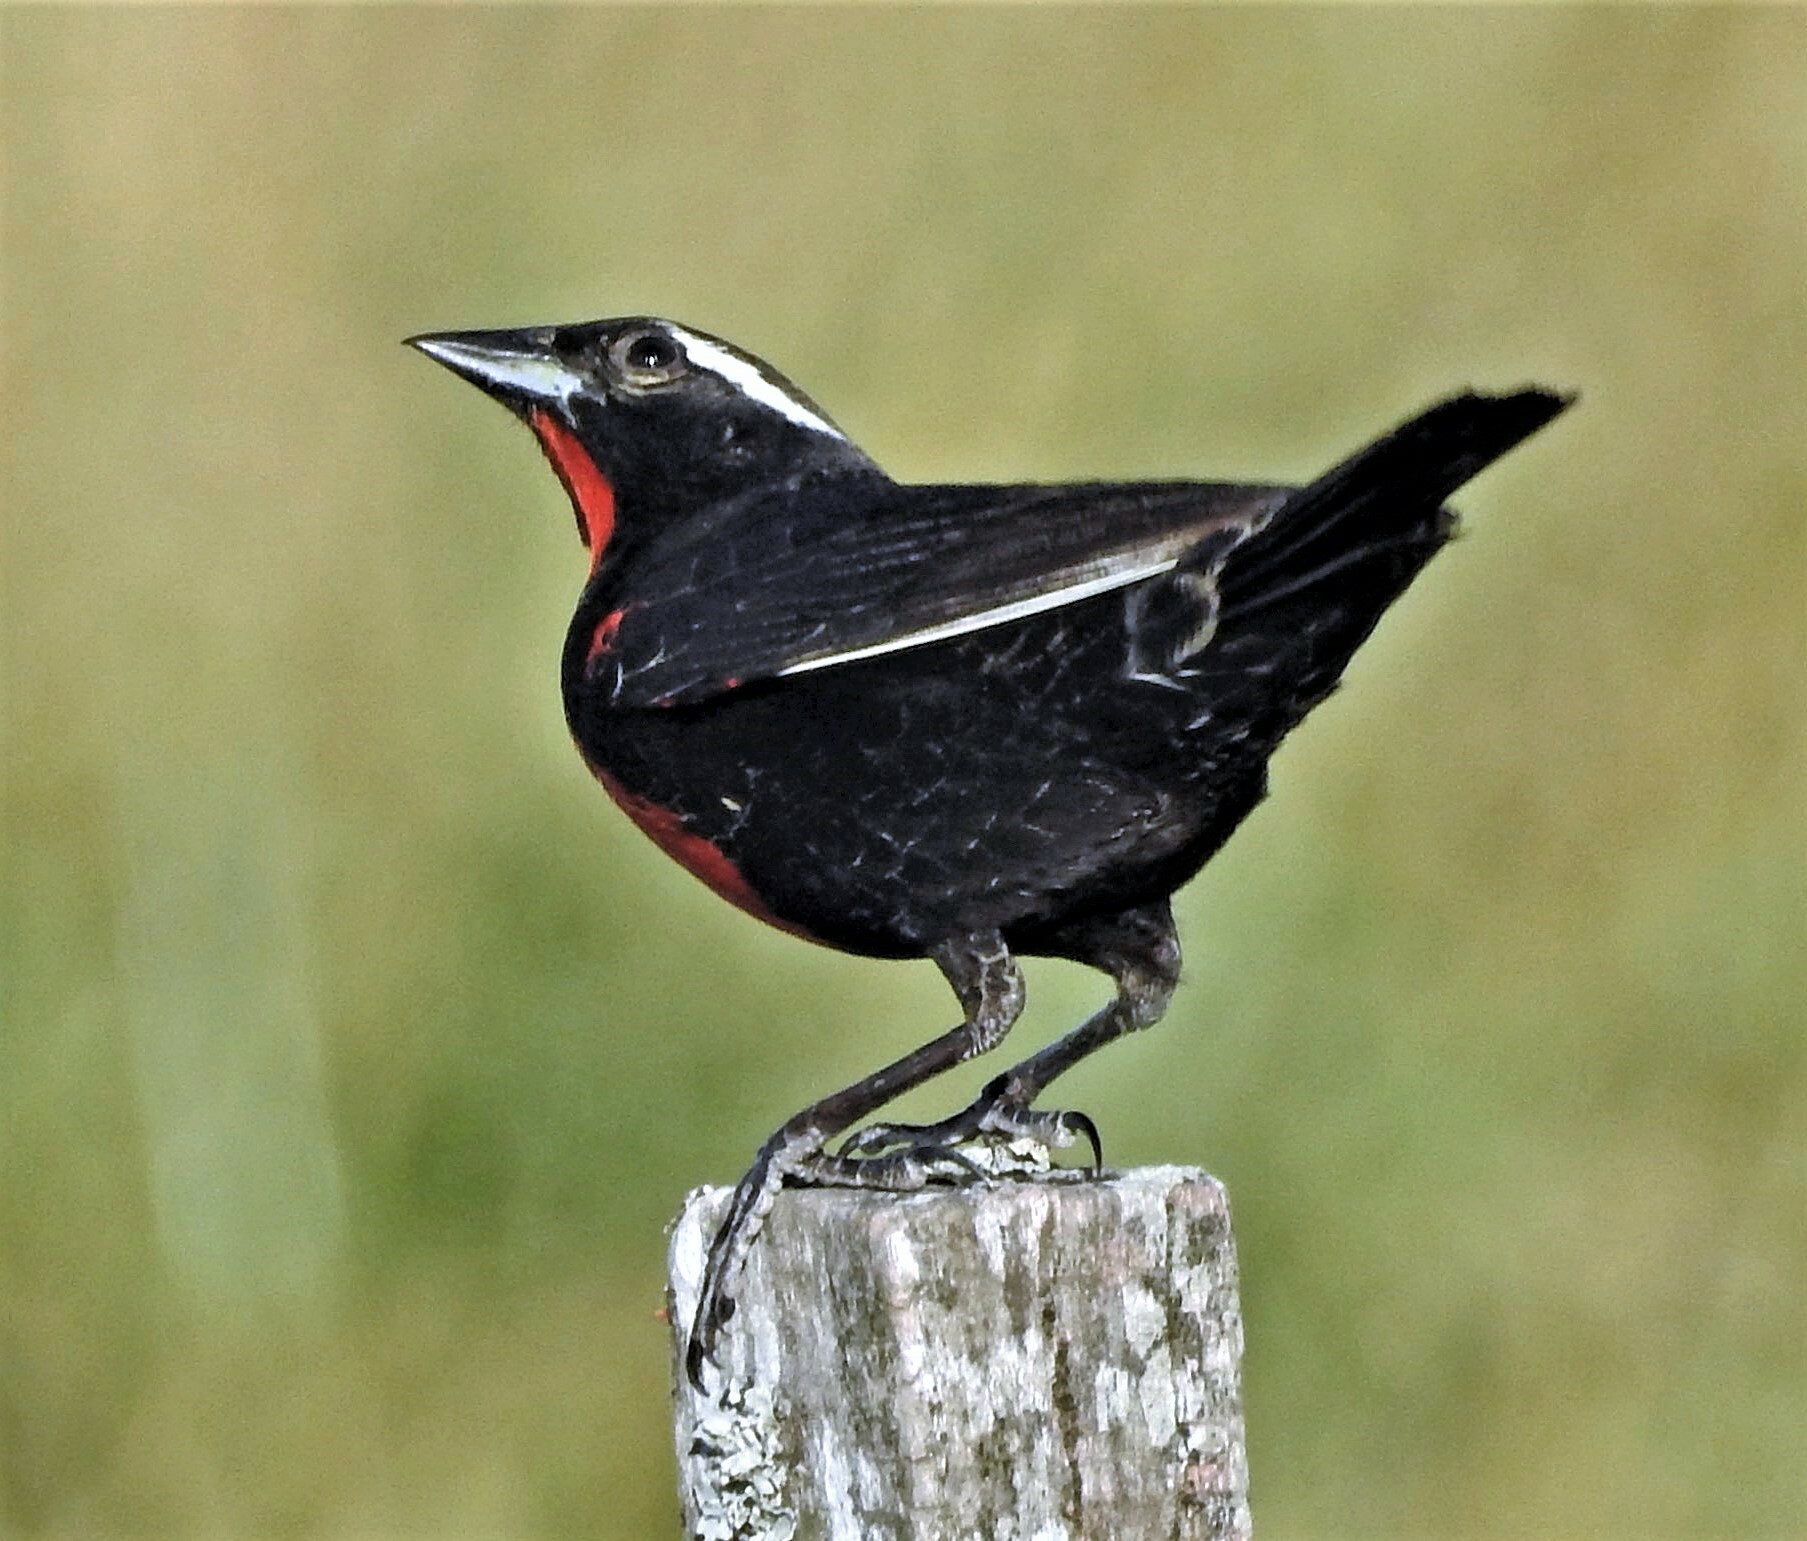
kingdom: Animalia
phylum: Chordata
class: Aves
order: Passeriformes
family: Icteridae
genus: Sturnella
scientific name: Sturnella superciliaris
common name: White-browed blackbird
